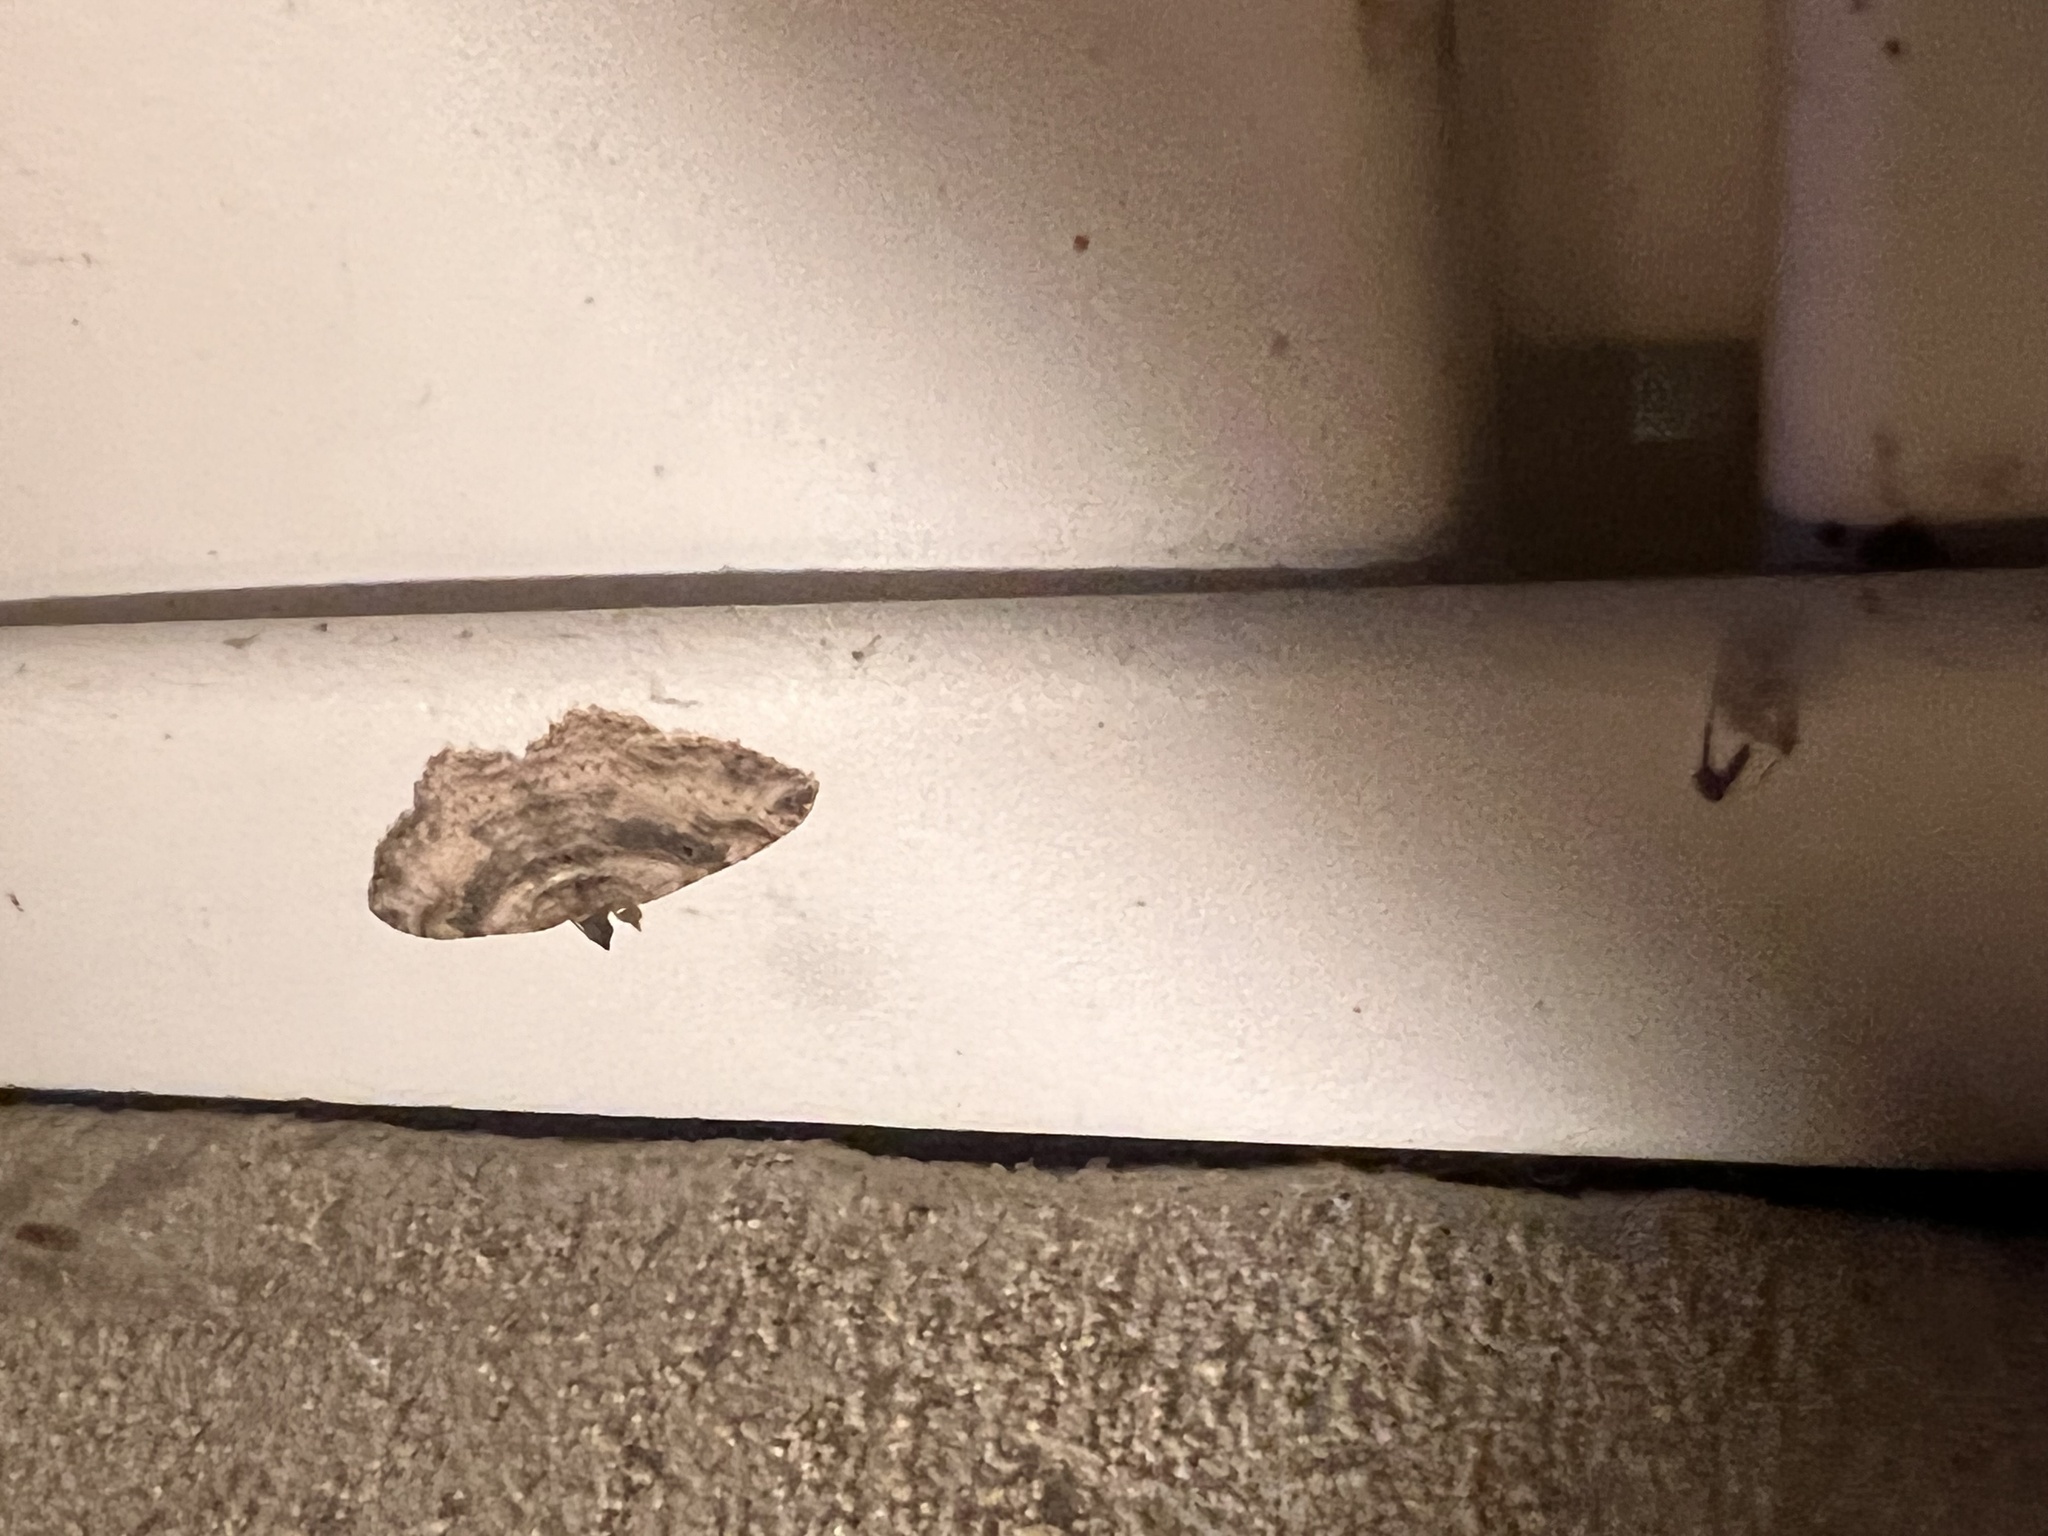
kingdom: Animalia
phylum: Arthropoda
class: Insecta
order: Lepidoptera
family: Geometridae
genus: Costaconvexa
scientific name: Costaconvexa centrostrigaria
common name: Bent-line carpet
